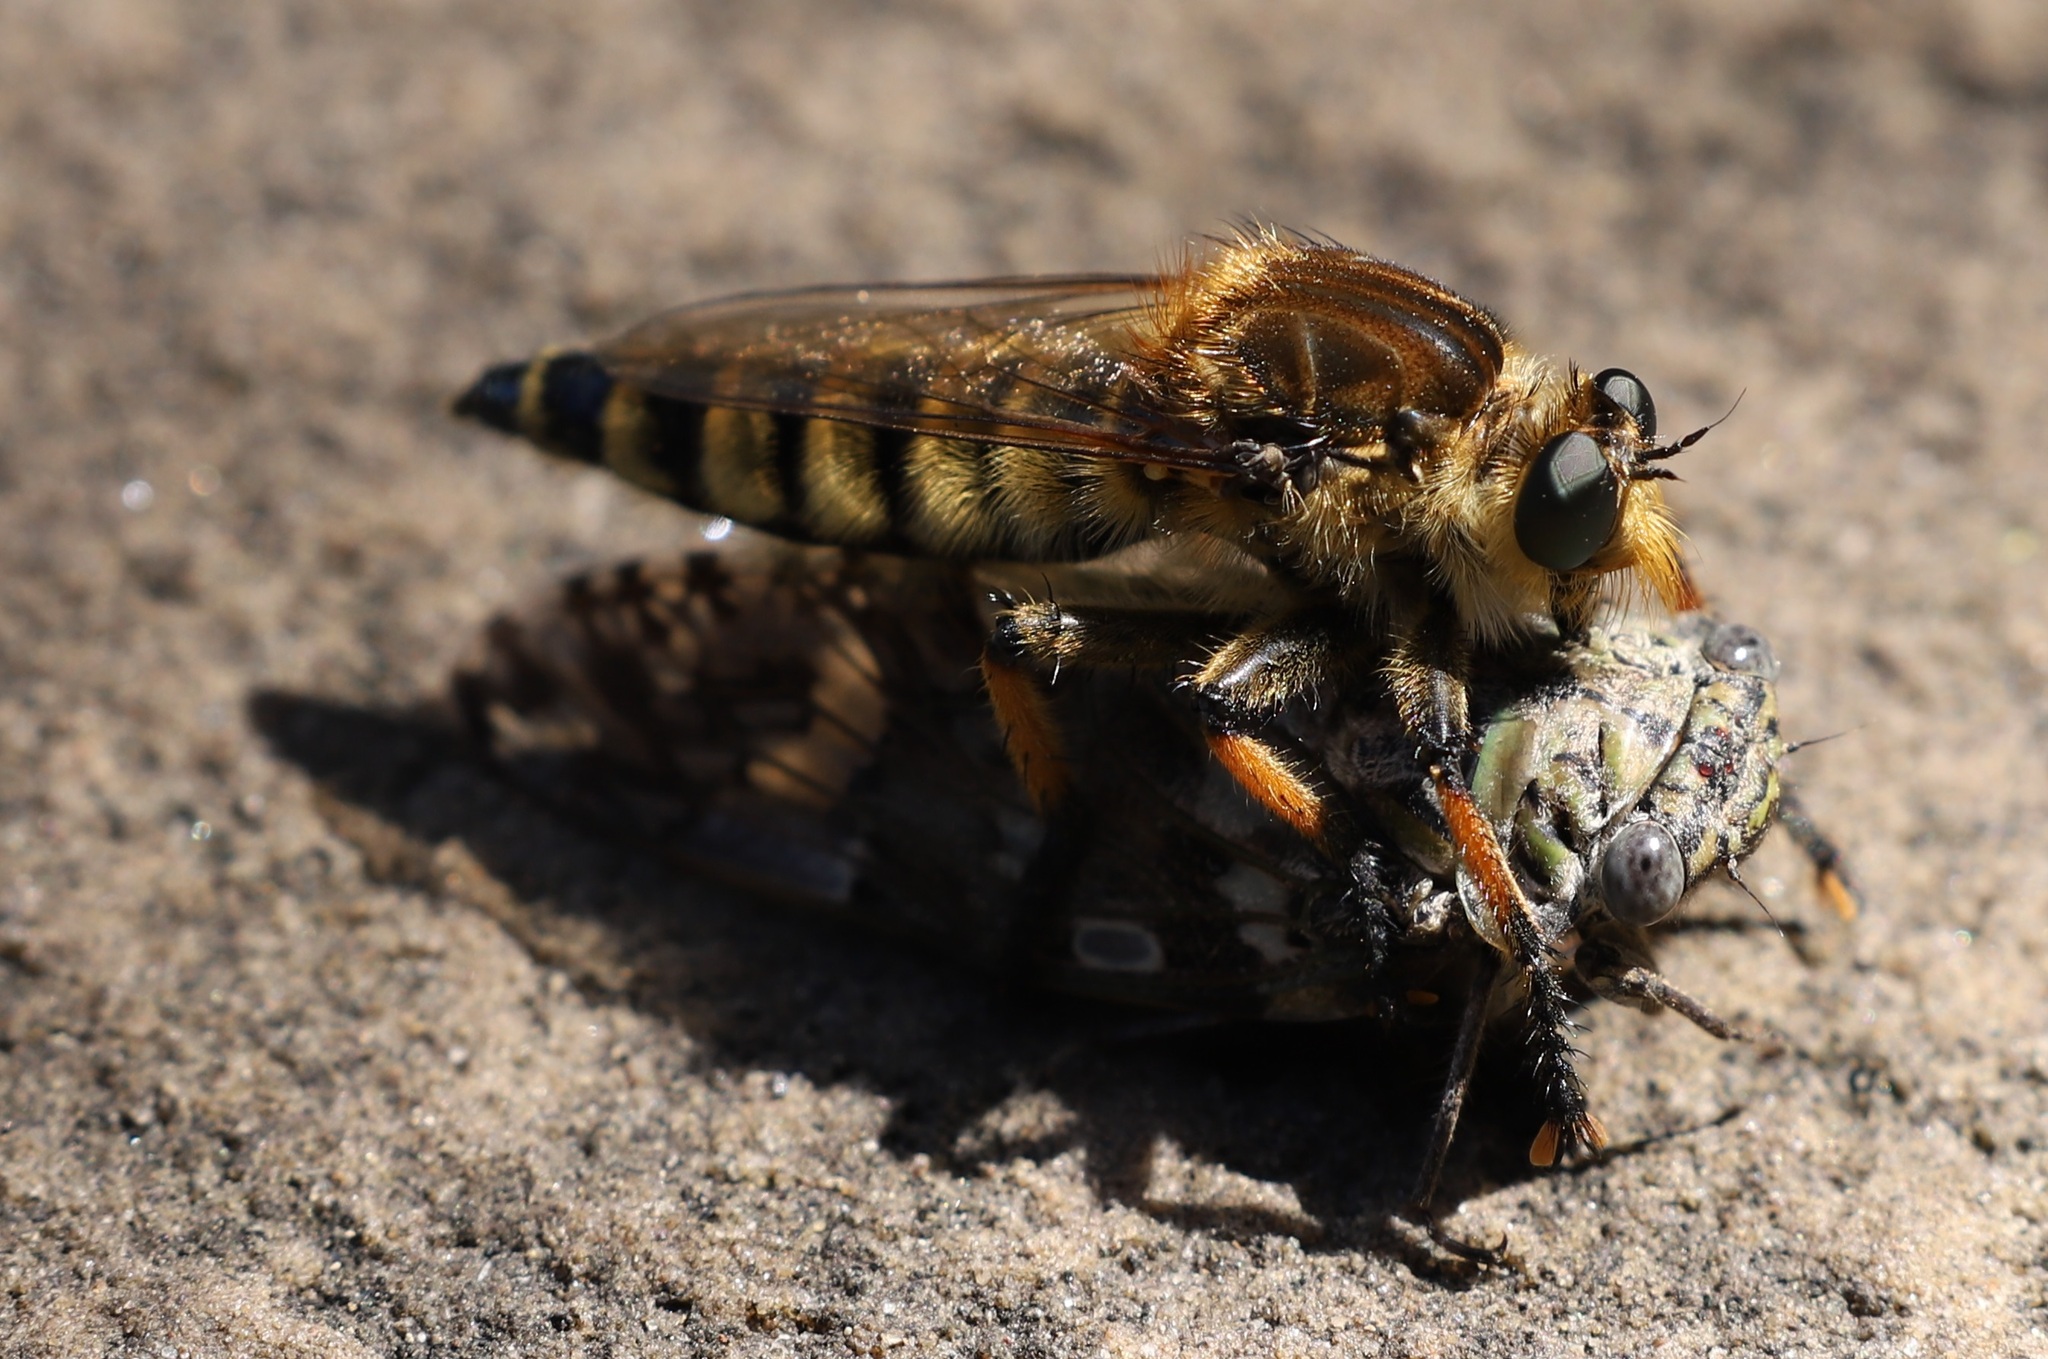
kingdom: Animalia
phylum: Arthropoda
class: Insecta
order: Diptera
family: Asilidae
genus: Promachus
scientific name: Promachus yesonicus
